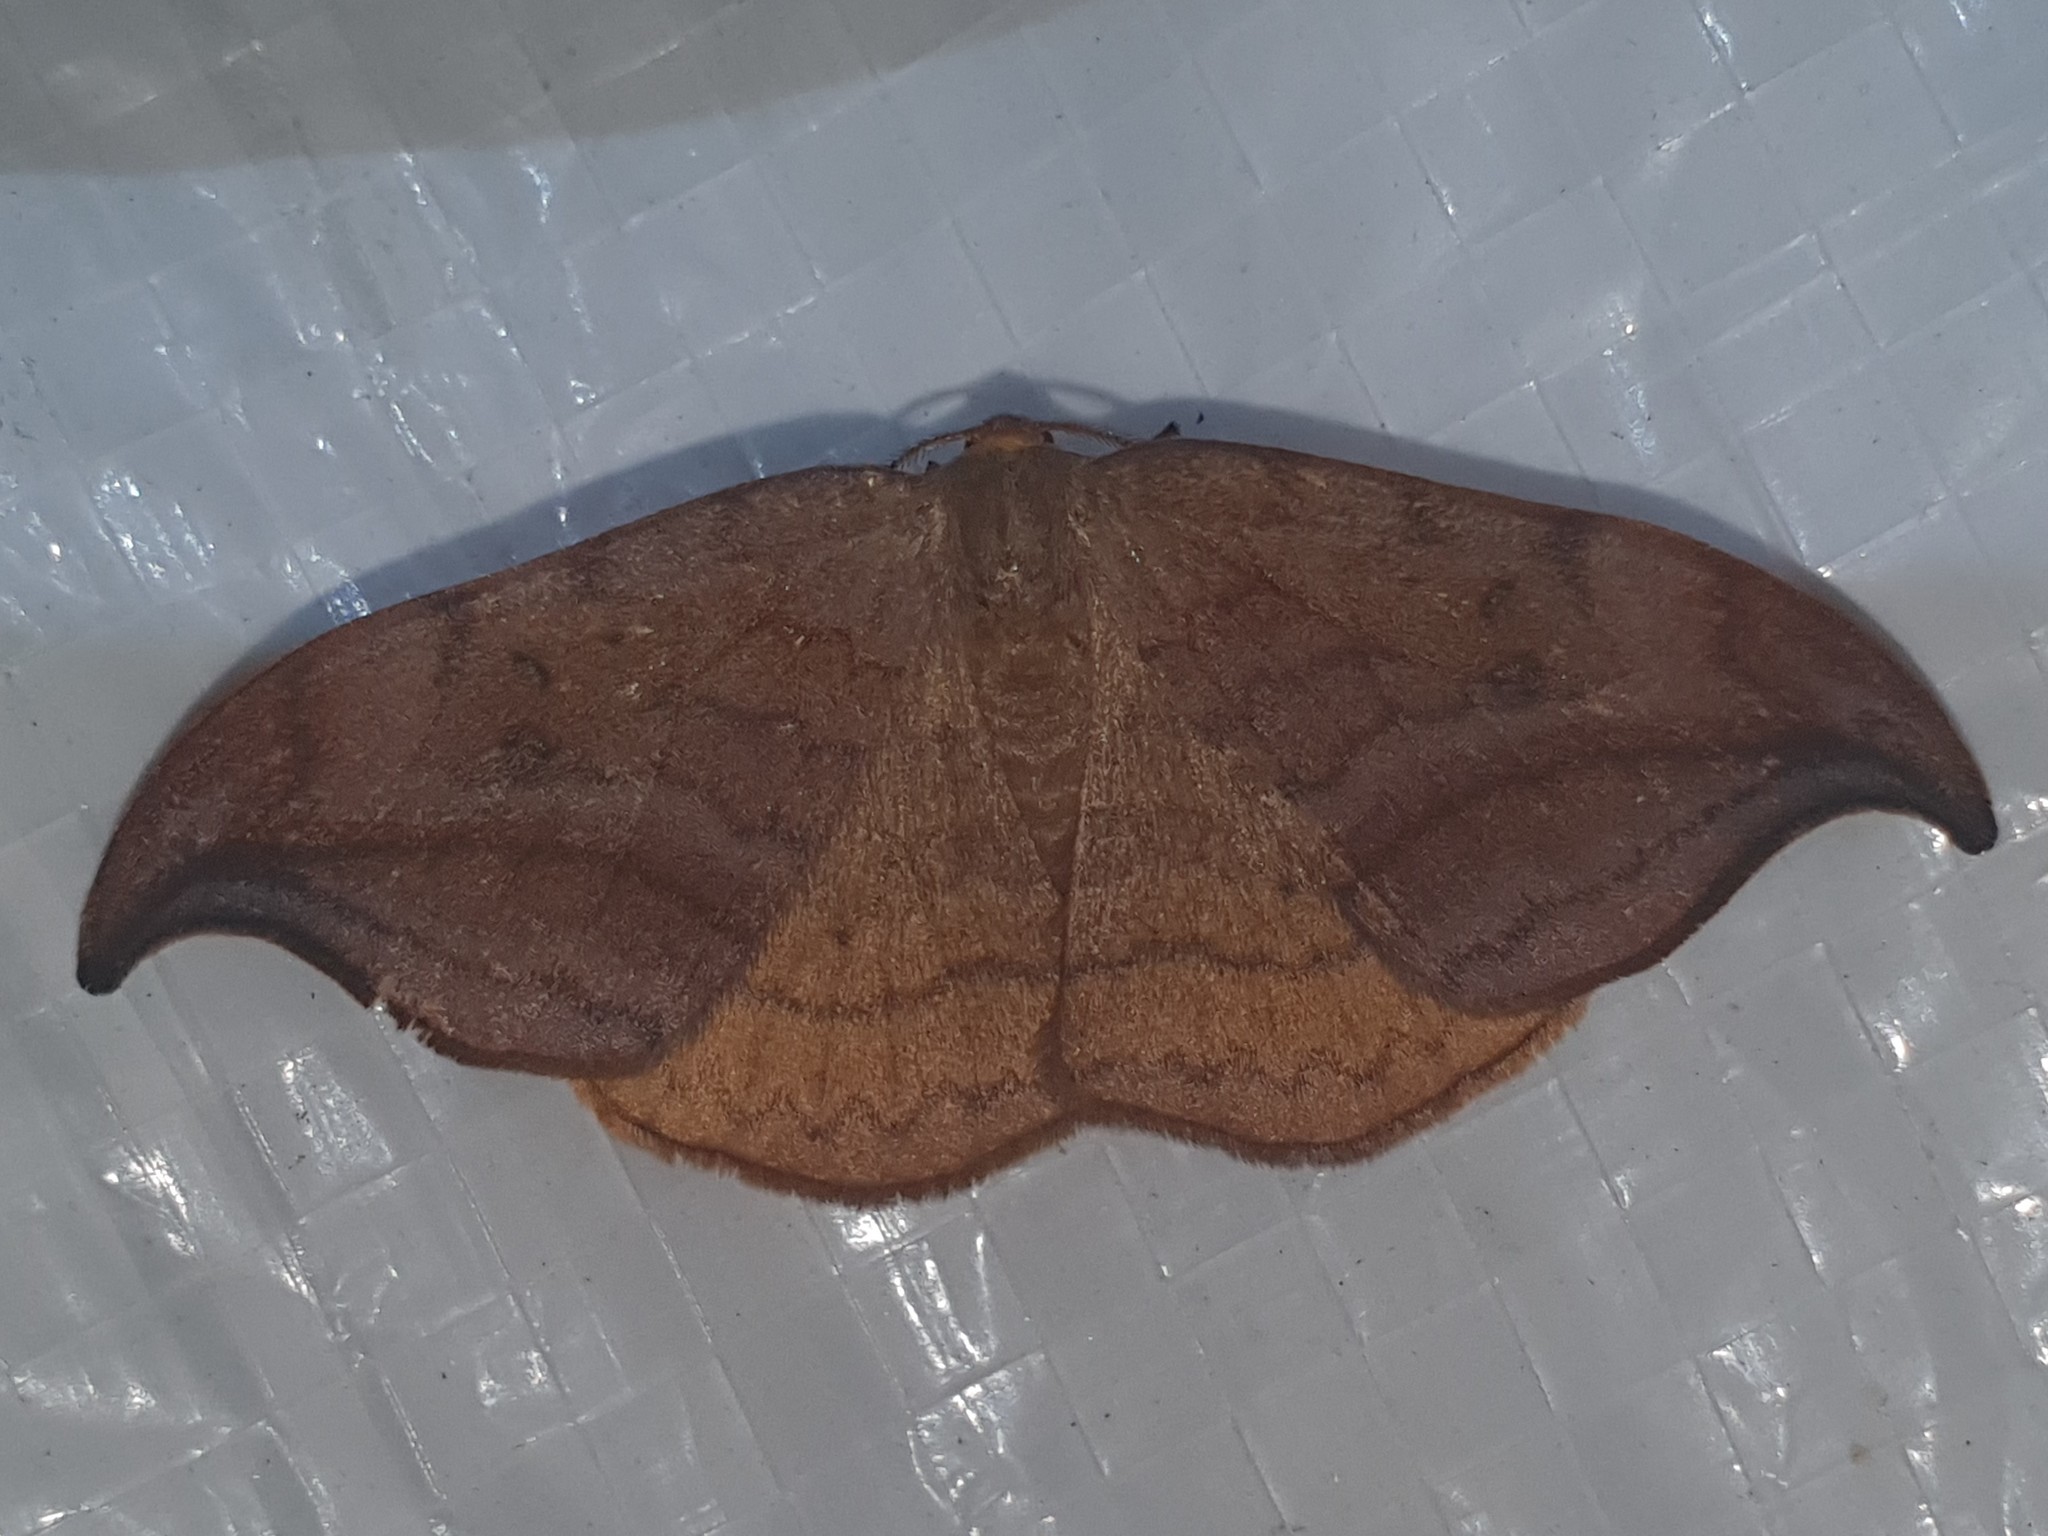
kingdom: Animalia
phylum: Arthropoda
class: Insecta
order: Lepidoptera
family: Drepanidae
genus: Drepana
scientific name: Drepana curvatula
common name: Dusky hook-tip
